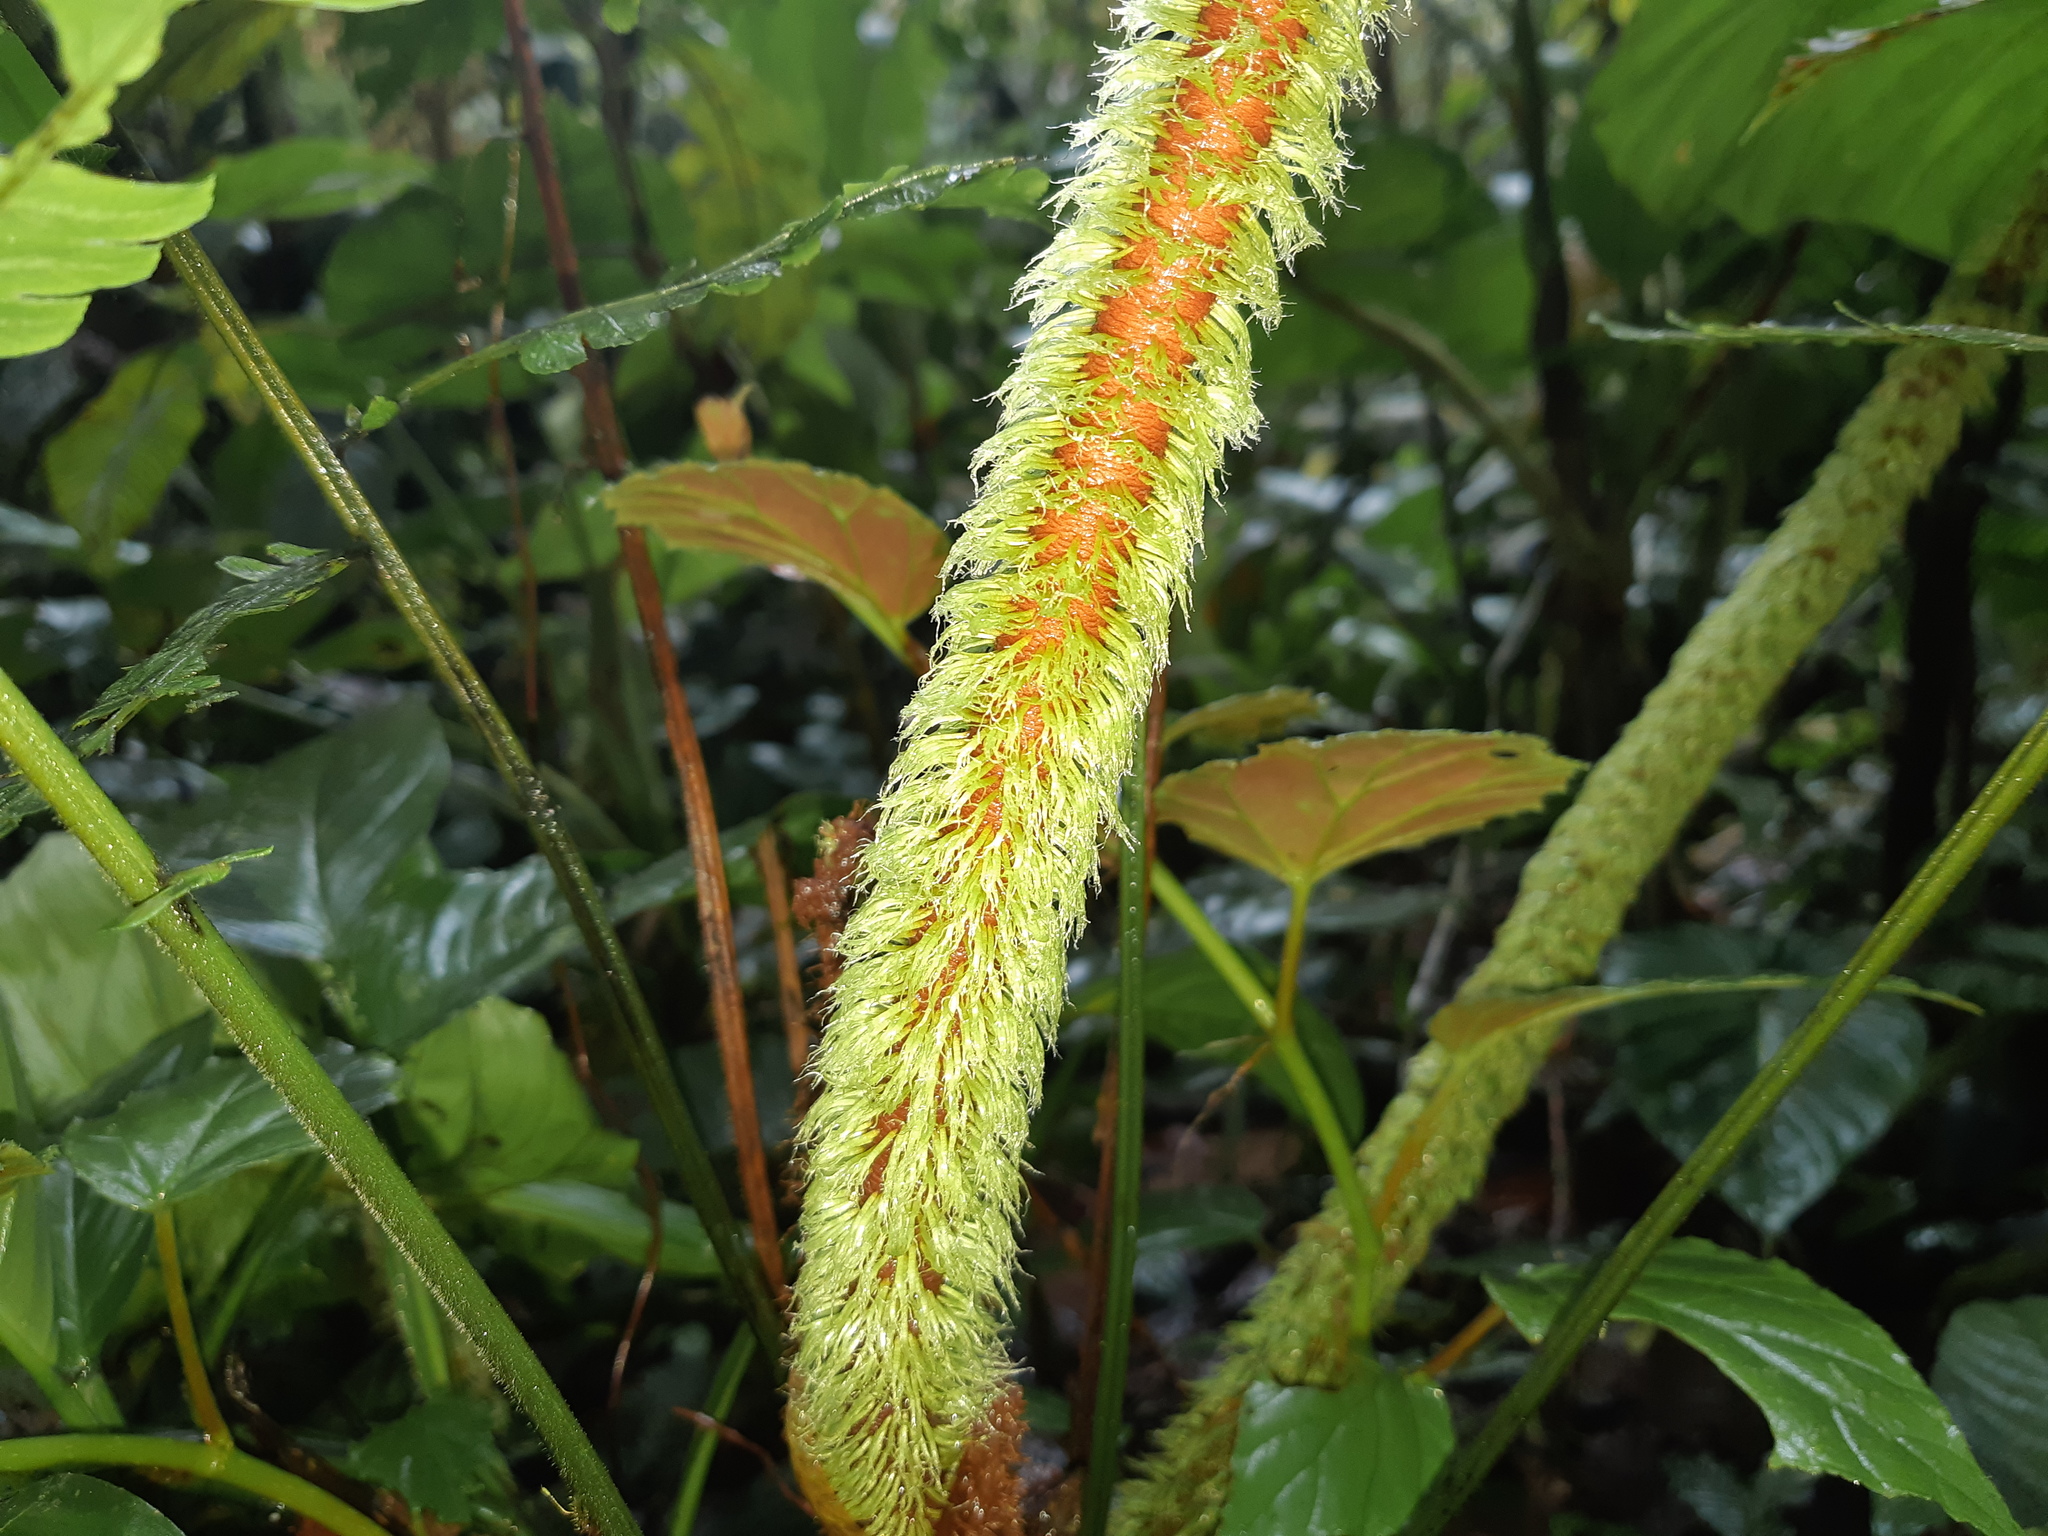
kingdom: Plantae
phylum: Tracheophyta
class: Liliopsida
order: Alismatales
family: Araceae
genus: Philodendron
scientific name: Philodendron fibrosum
